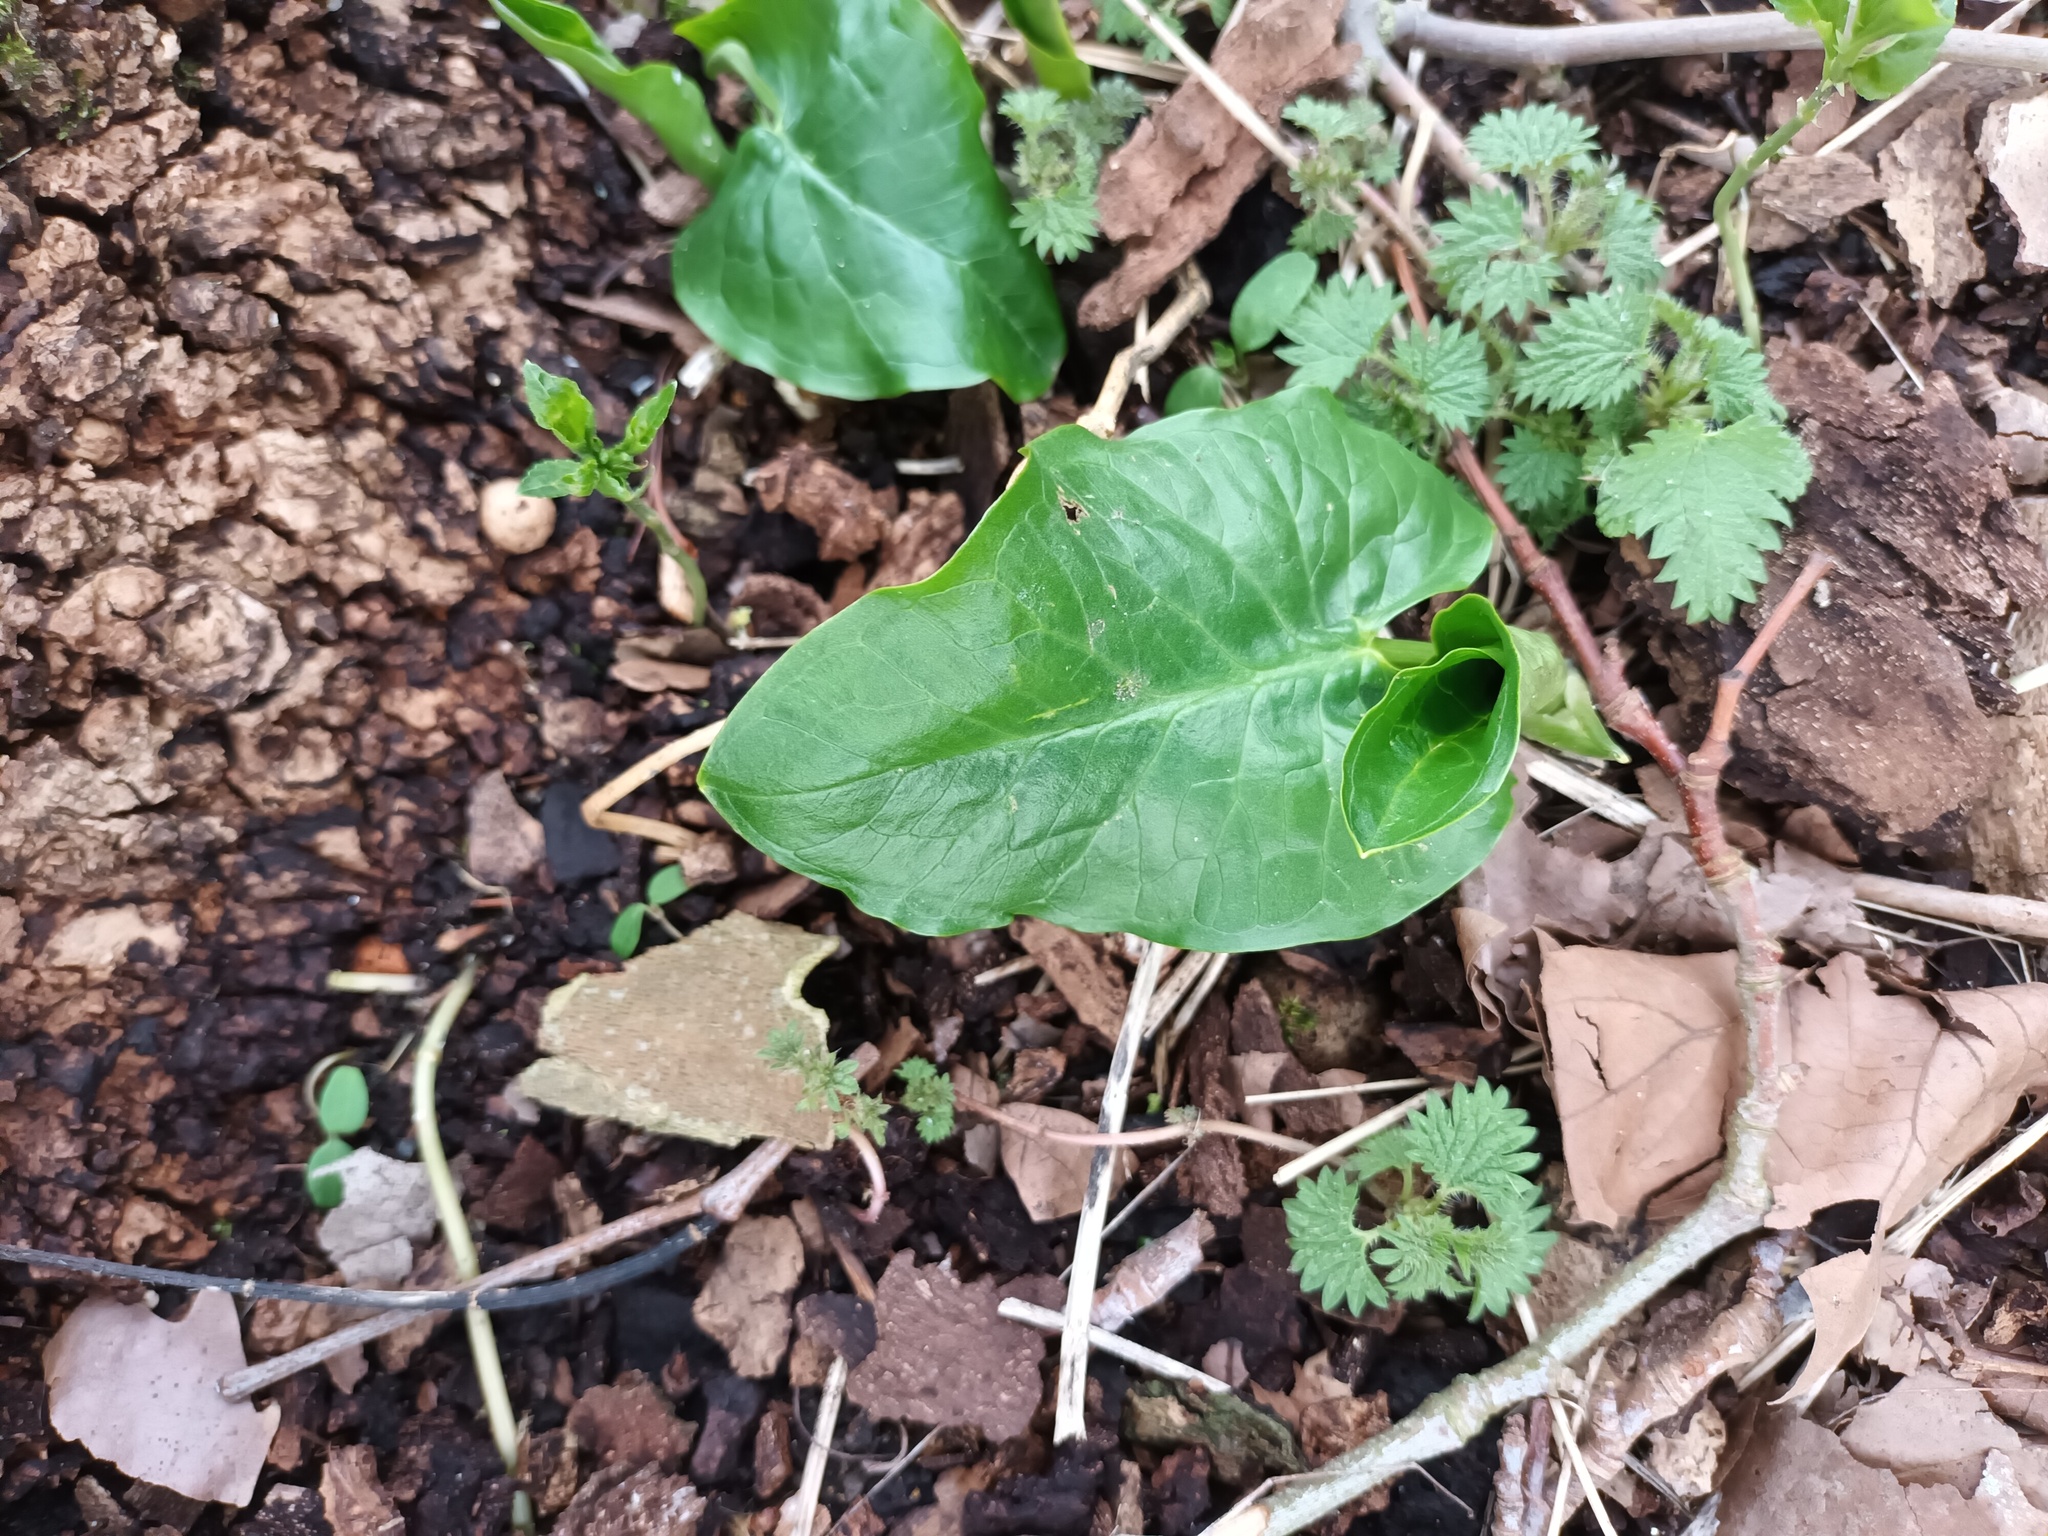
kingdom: Plantae
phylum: Tracheophyta
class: Liliopsida
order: Alismatales
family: Araceae
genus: Arum
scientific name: Arum maculatum
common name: Lords-and-ladies
